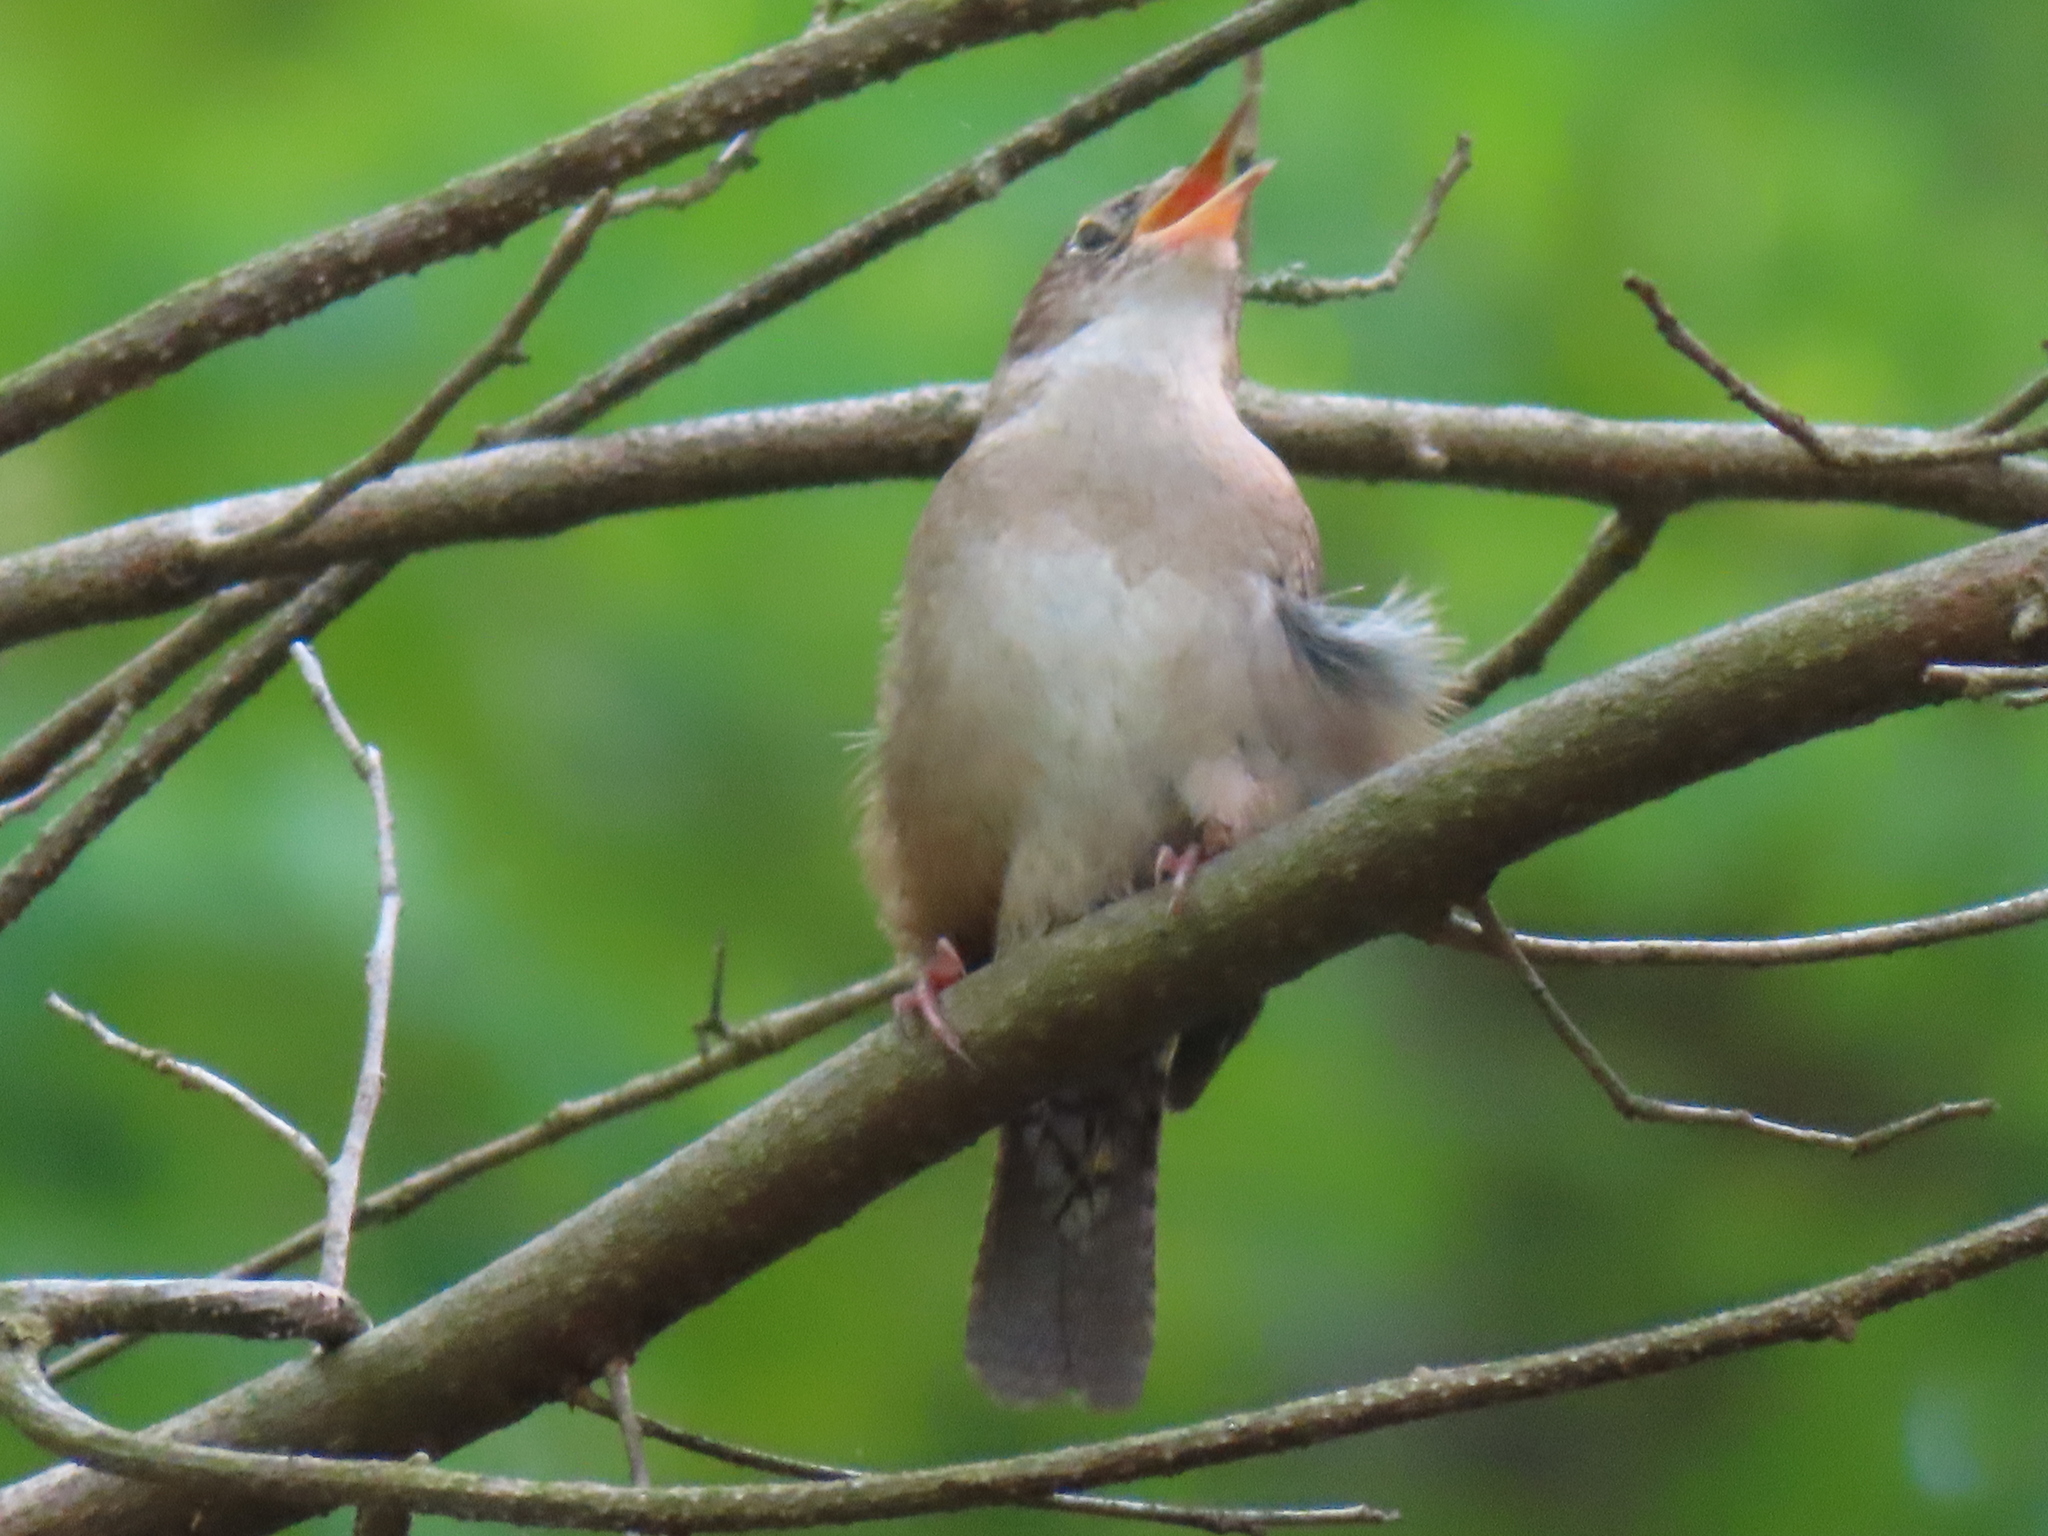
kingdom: Animalia
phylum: Chordata
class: Aves
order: Passeriformes
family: Troglodytidae
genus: Troglodytes
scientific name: Troglodytes aedon
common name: House wren
